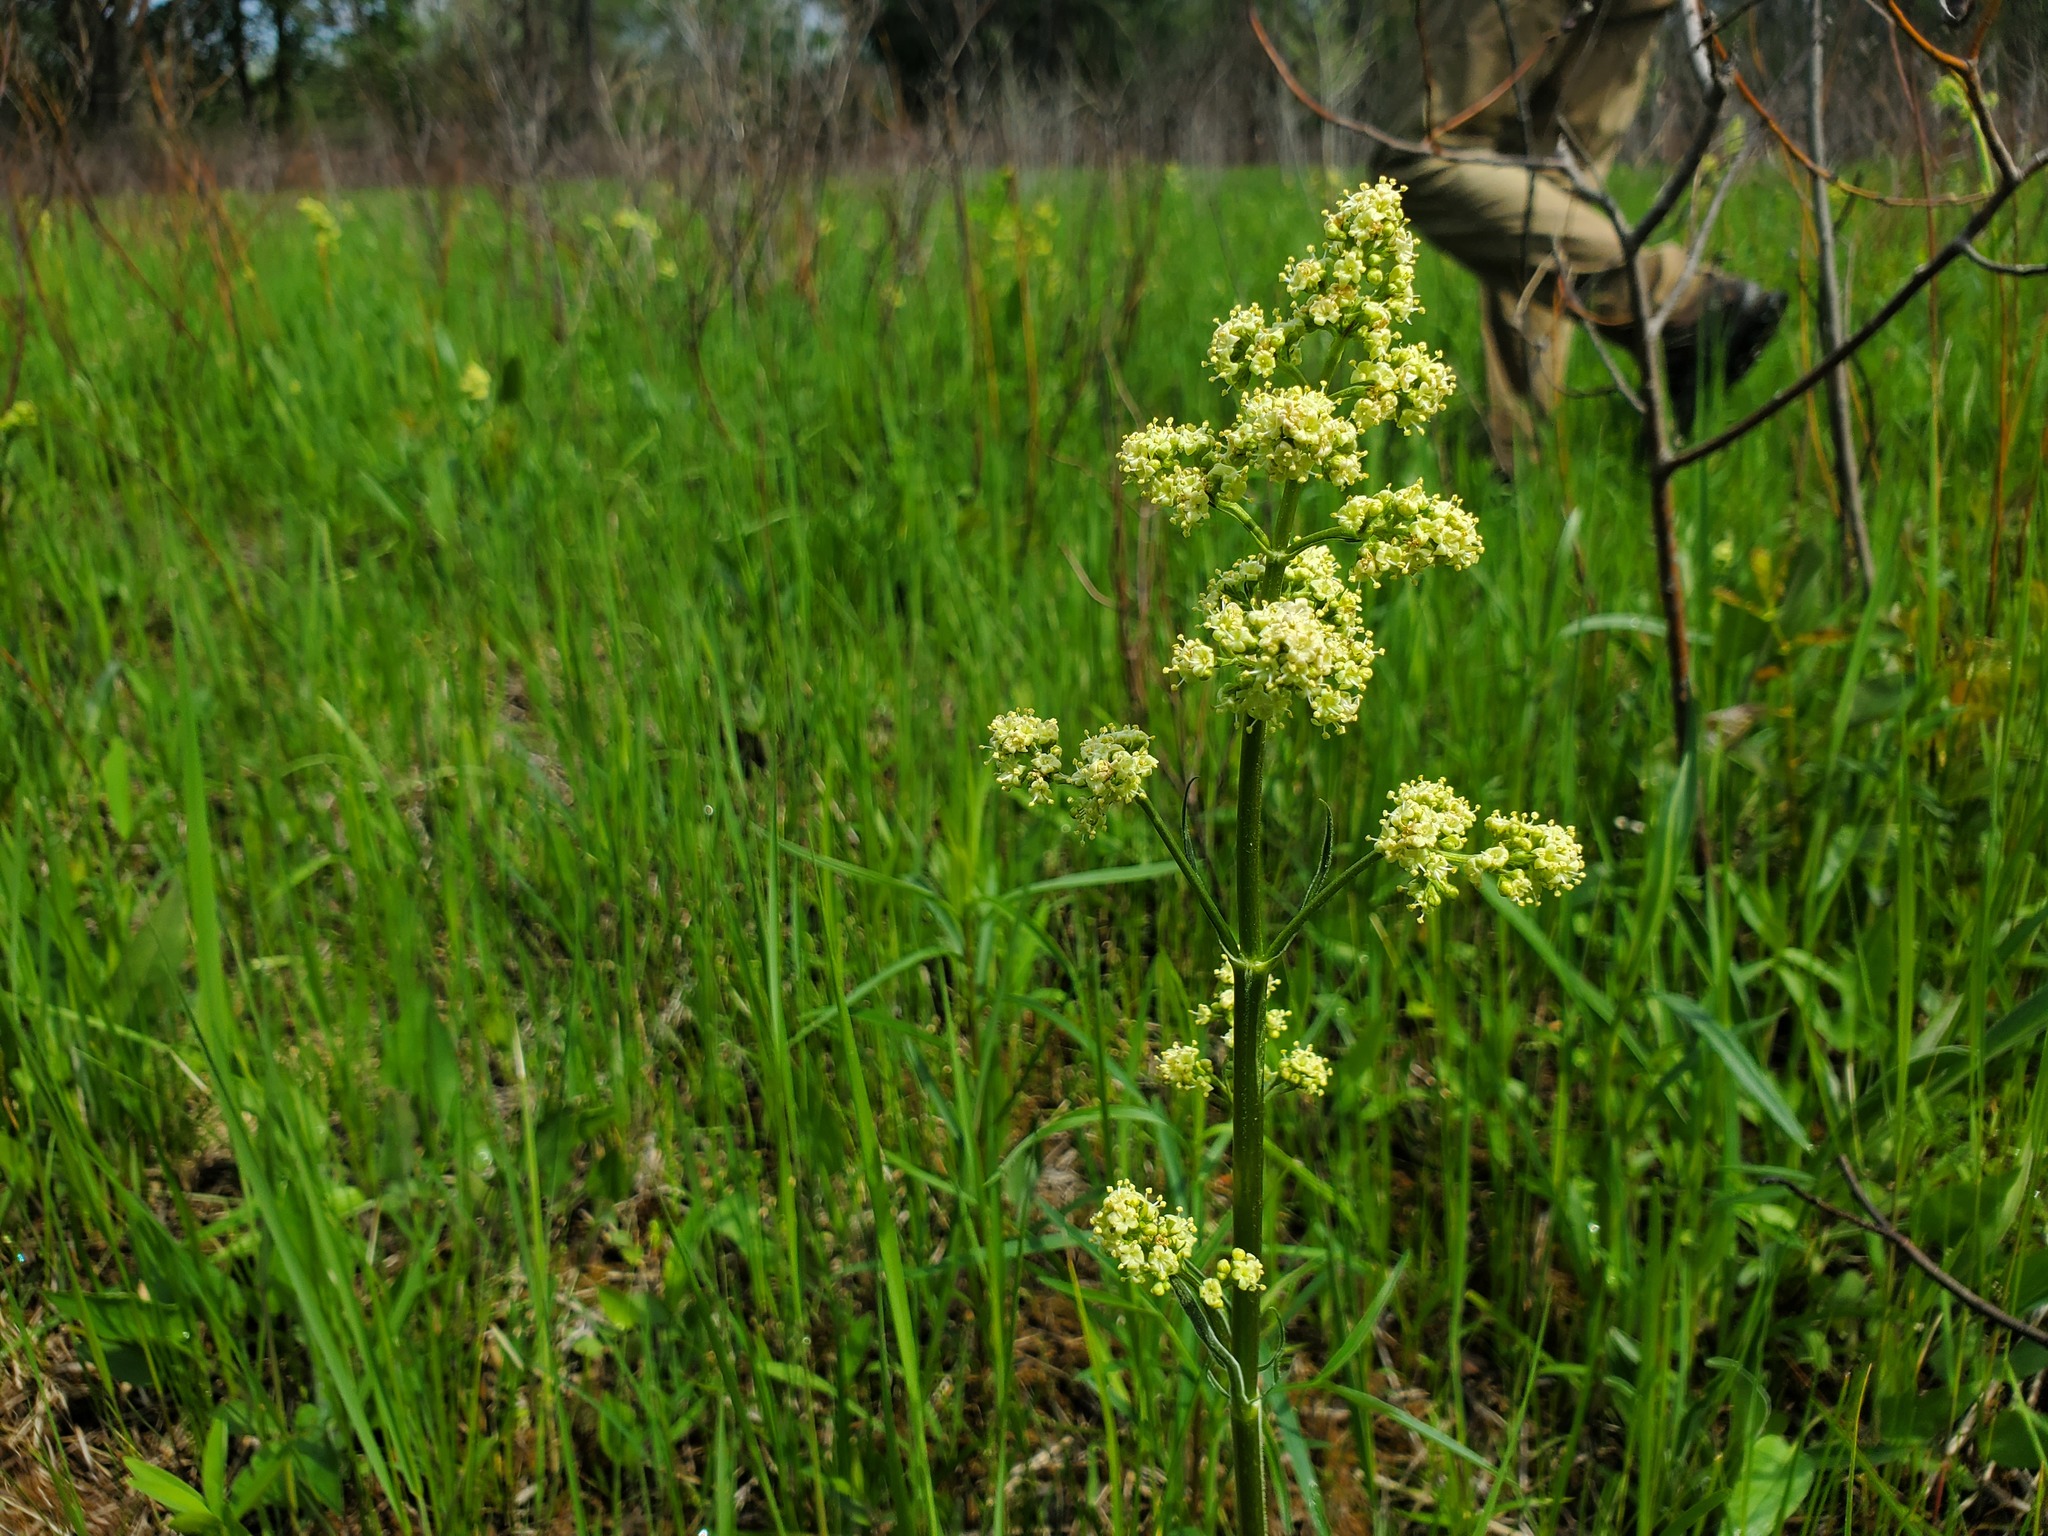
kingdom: Plantae
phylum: Tracheophyta
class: Magnoliopsida
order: Dipsacales
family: Caprifoliaceae
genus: Valeriana
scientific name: Valeriana edulis
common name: Taproot valerian
